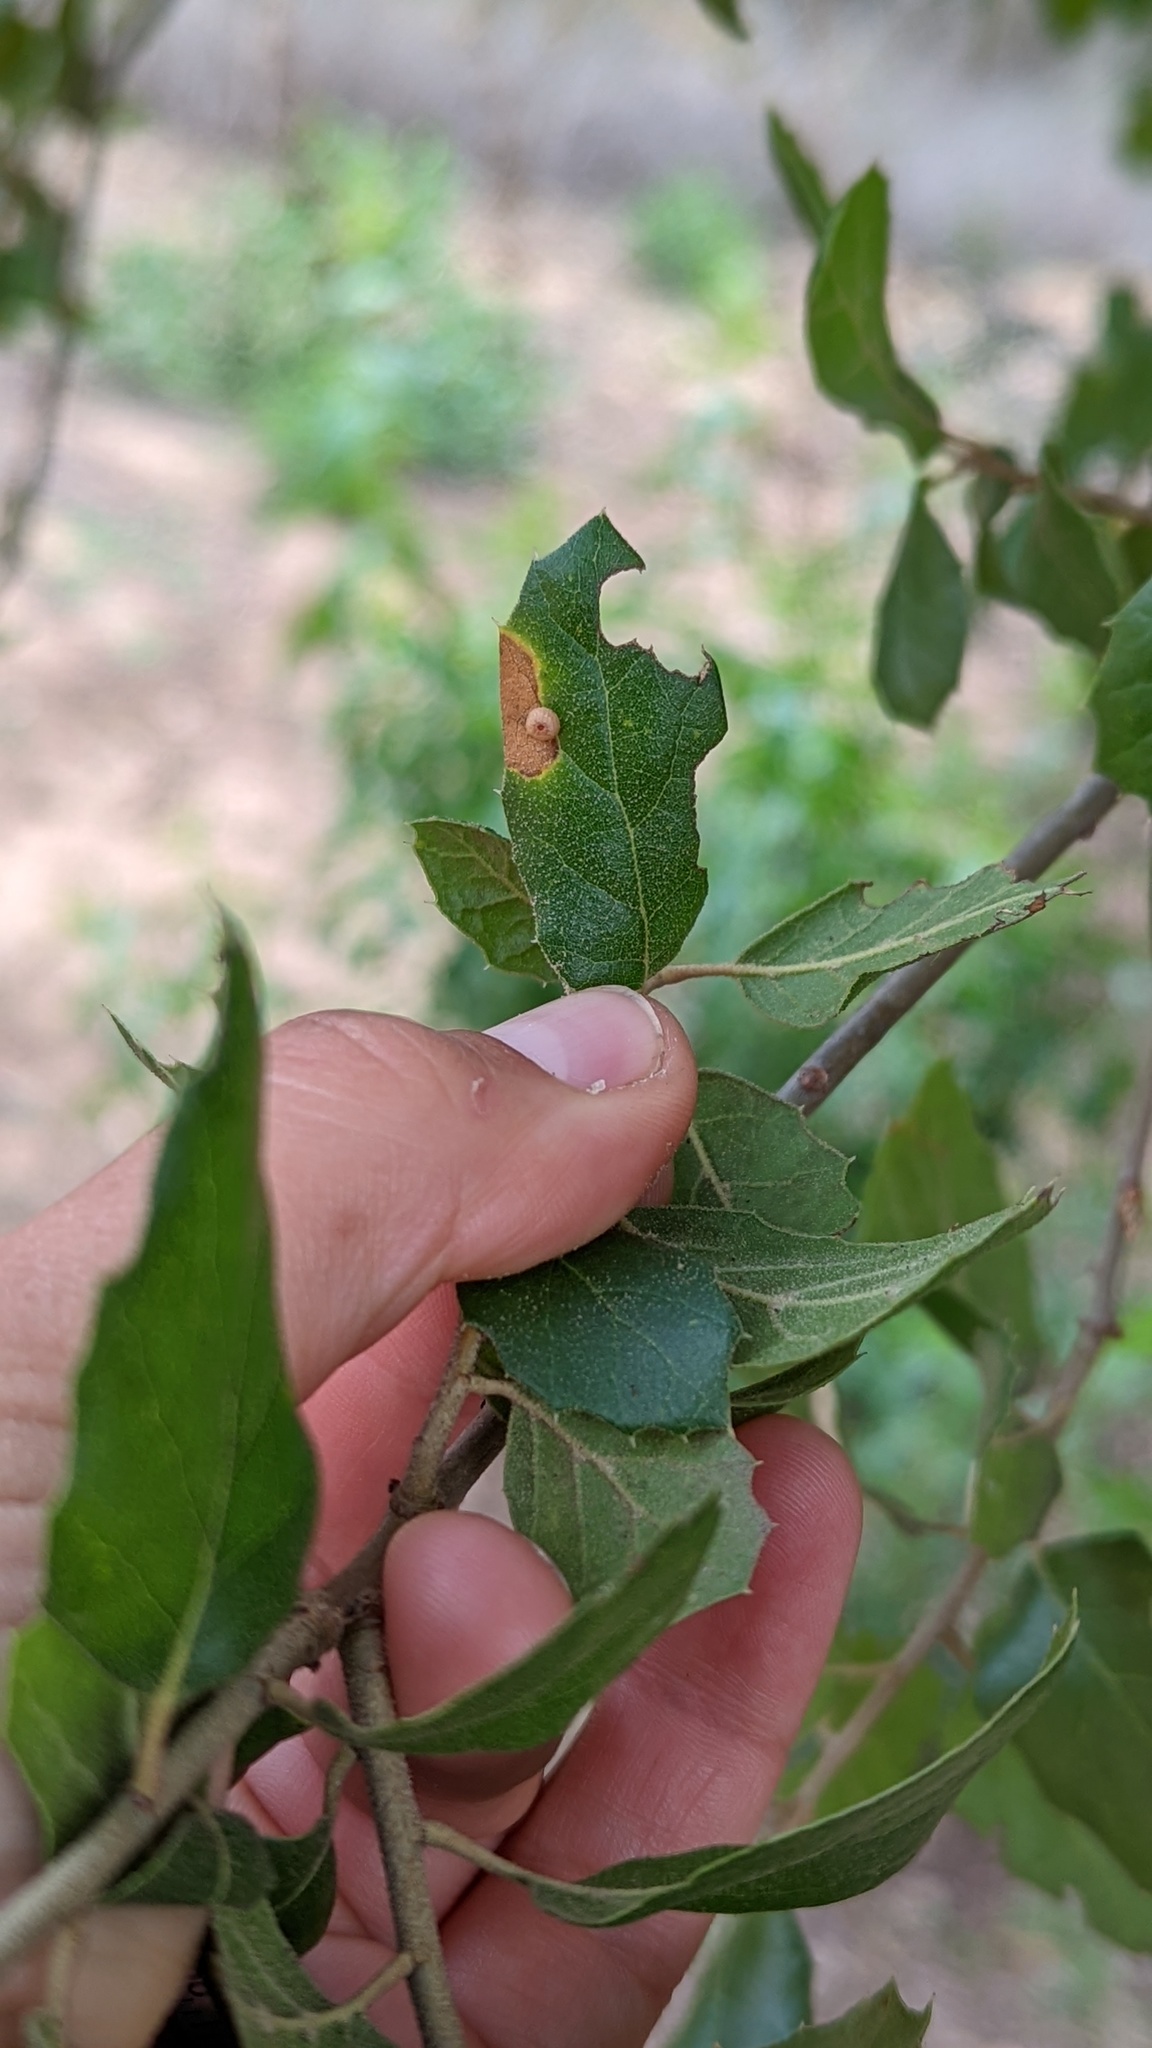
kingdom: Animalia
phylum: Arthropoda
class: Insecta
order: Hymenoptera
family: Cynipidae
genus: Dryocosmus
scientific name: Dryocosmus
